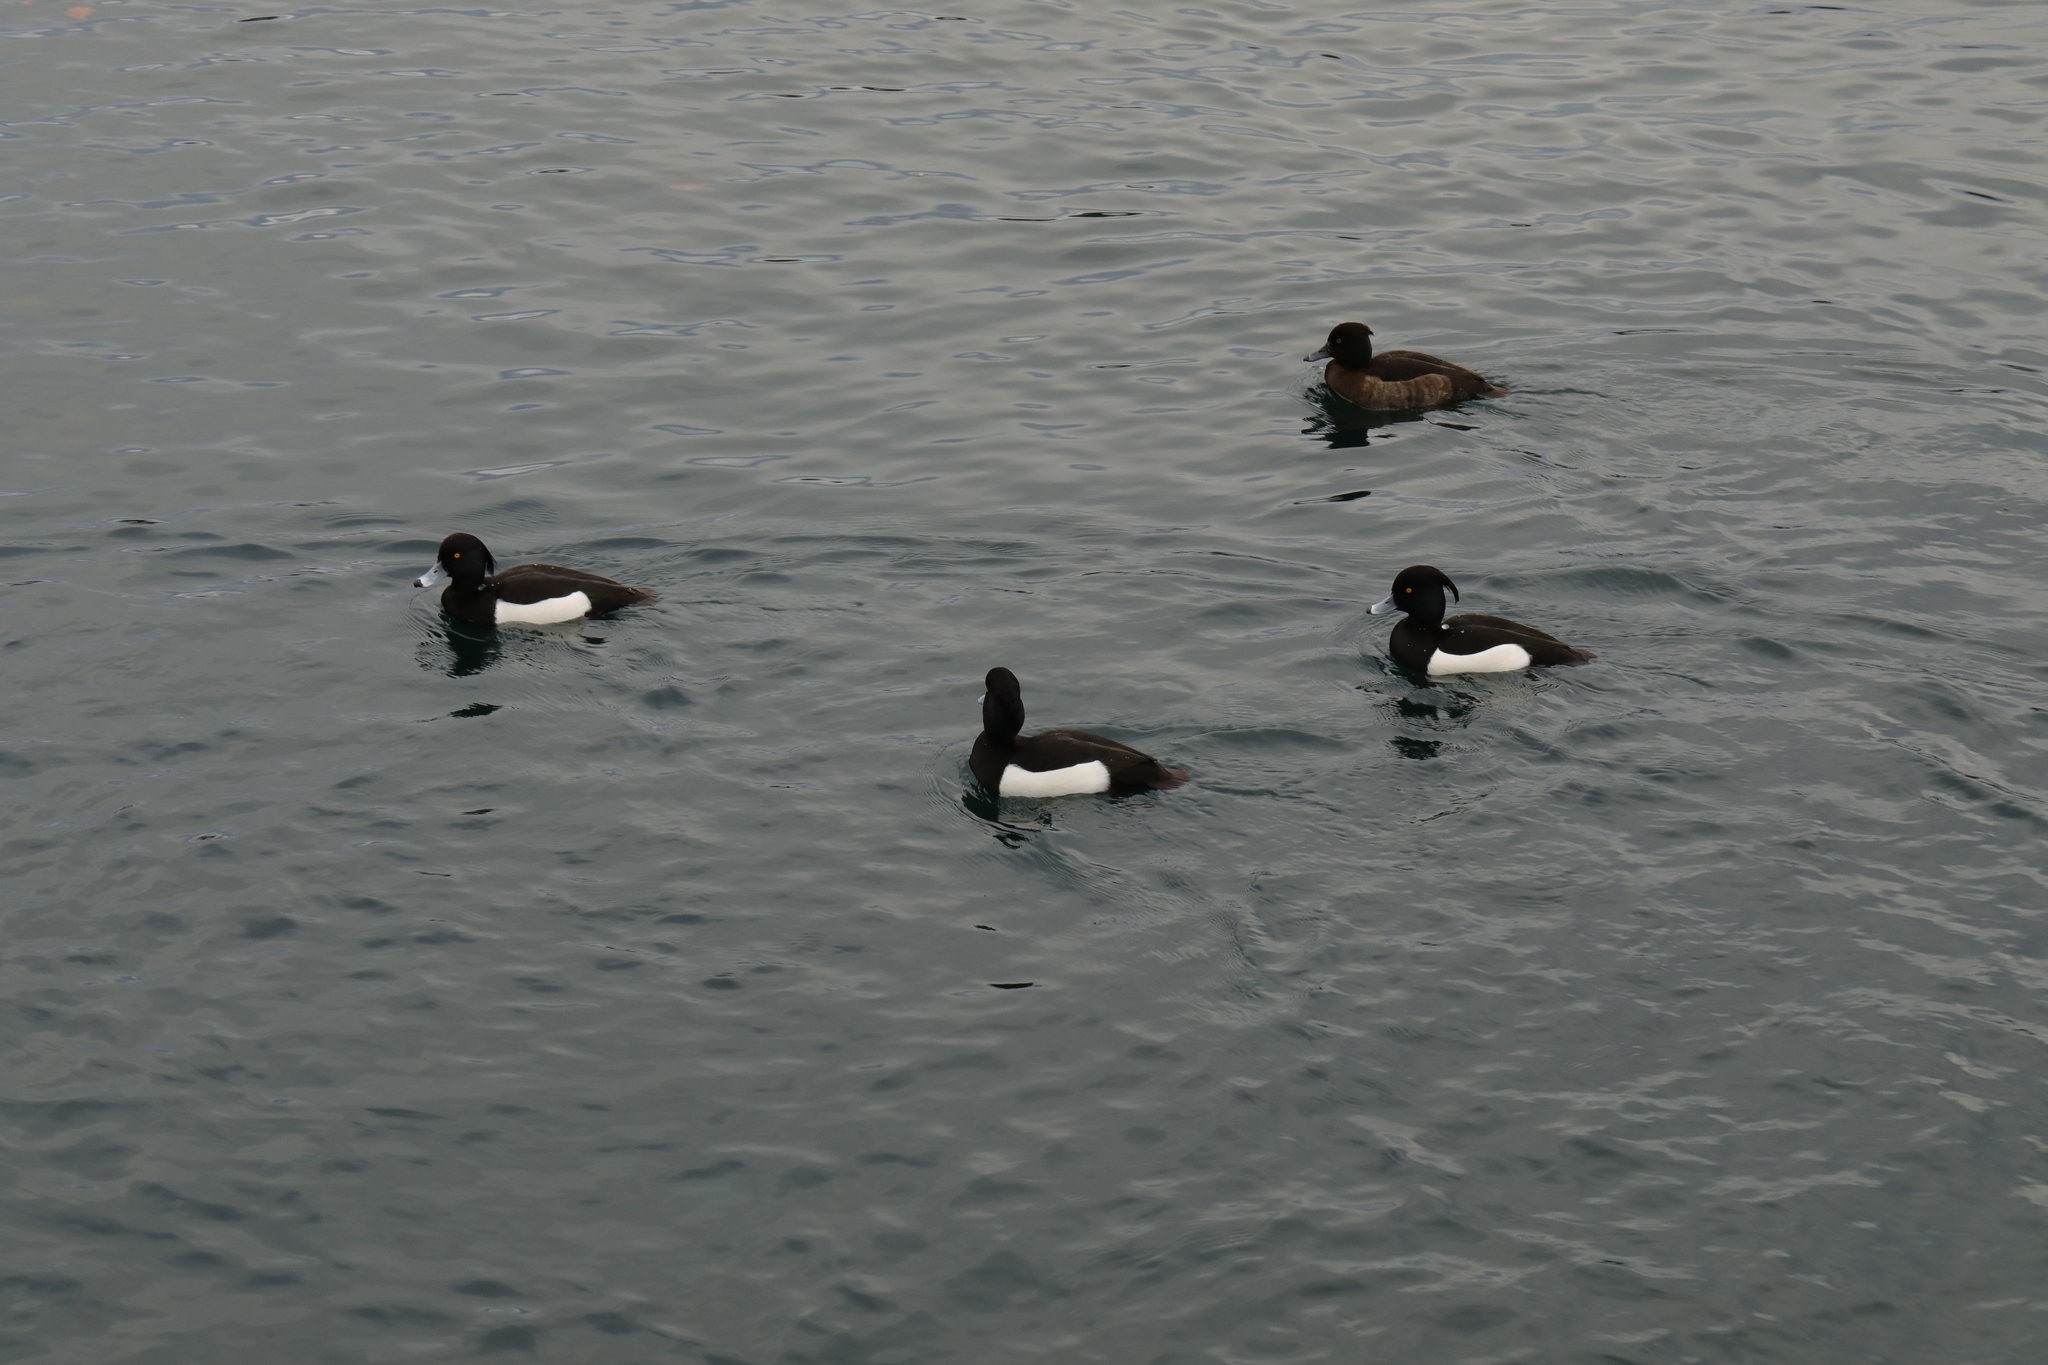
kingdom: Animalia
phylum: Chordata
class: Aves
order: Anseriformes
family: Anatidae
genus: Aythya
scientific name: Aythya fuligula
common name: Tufted duck
